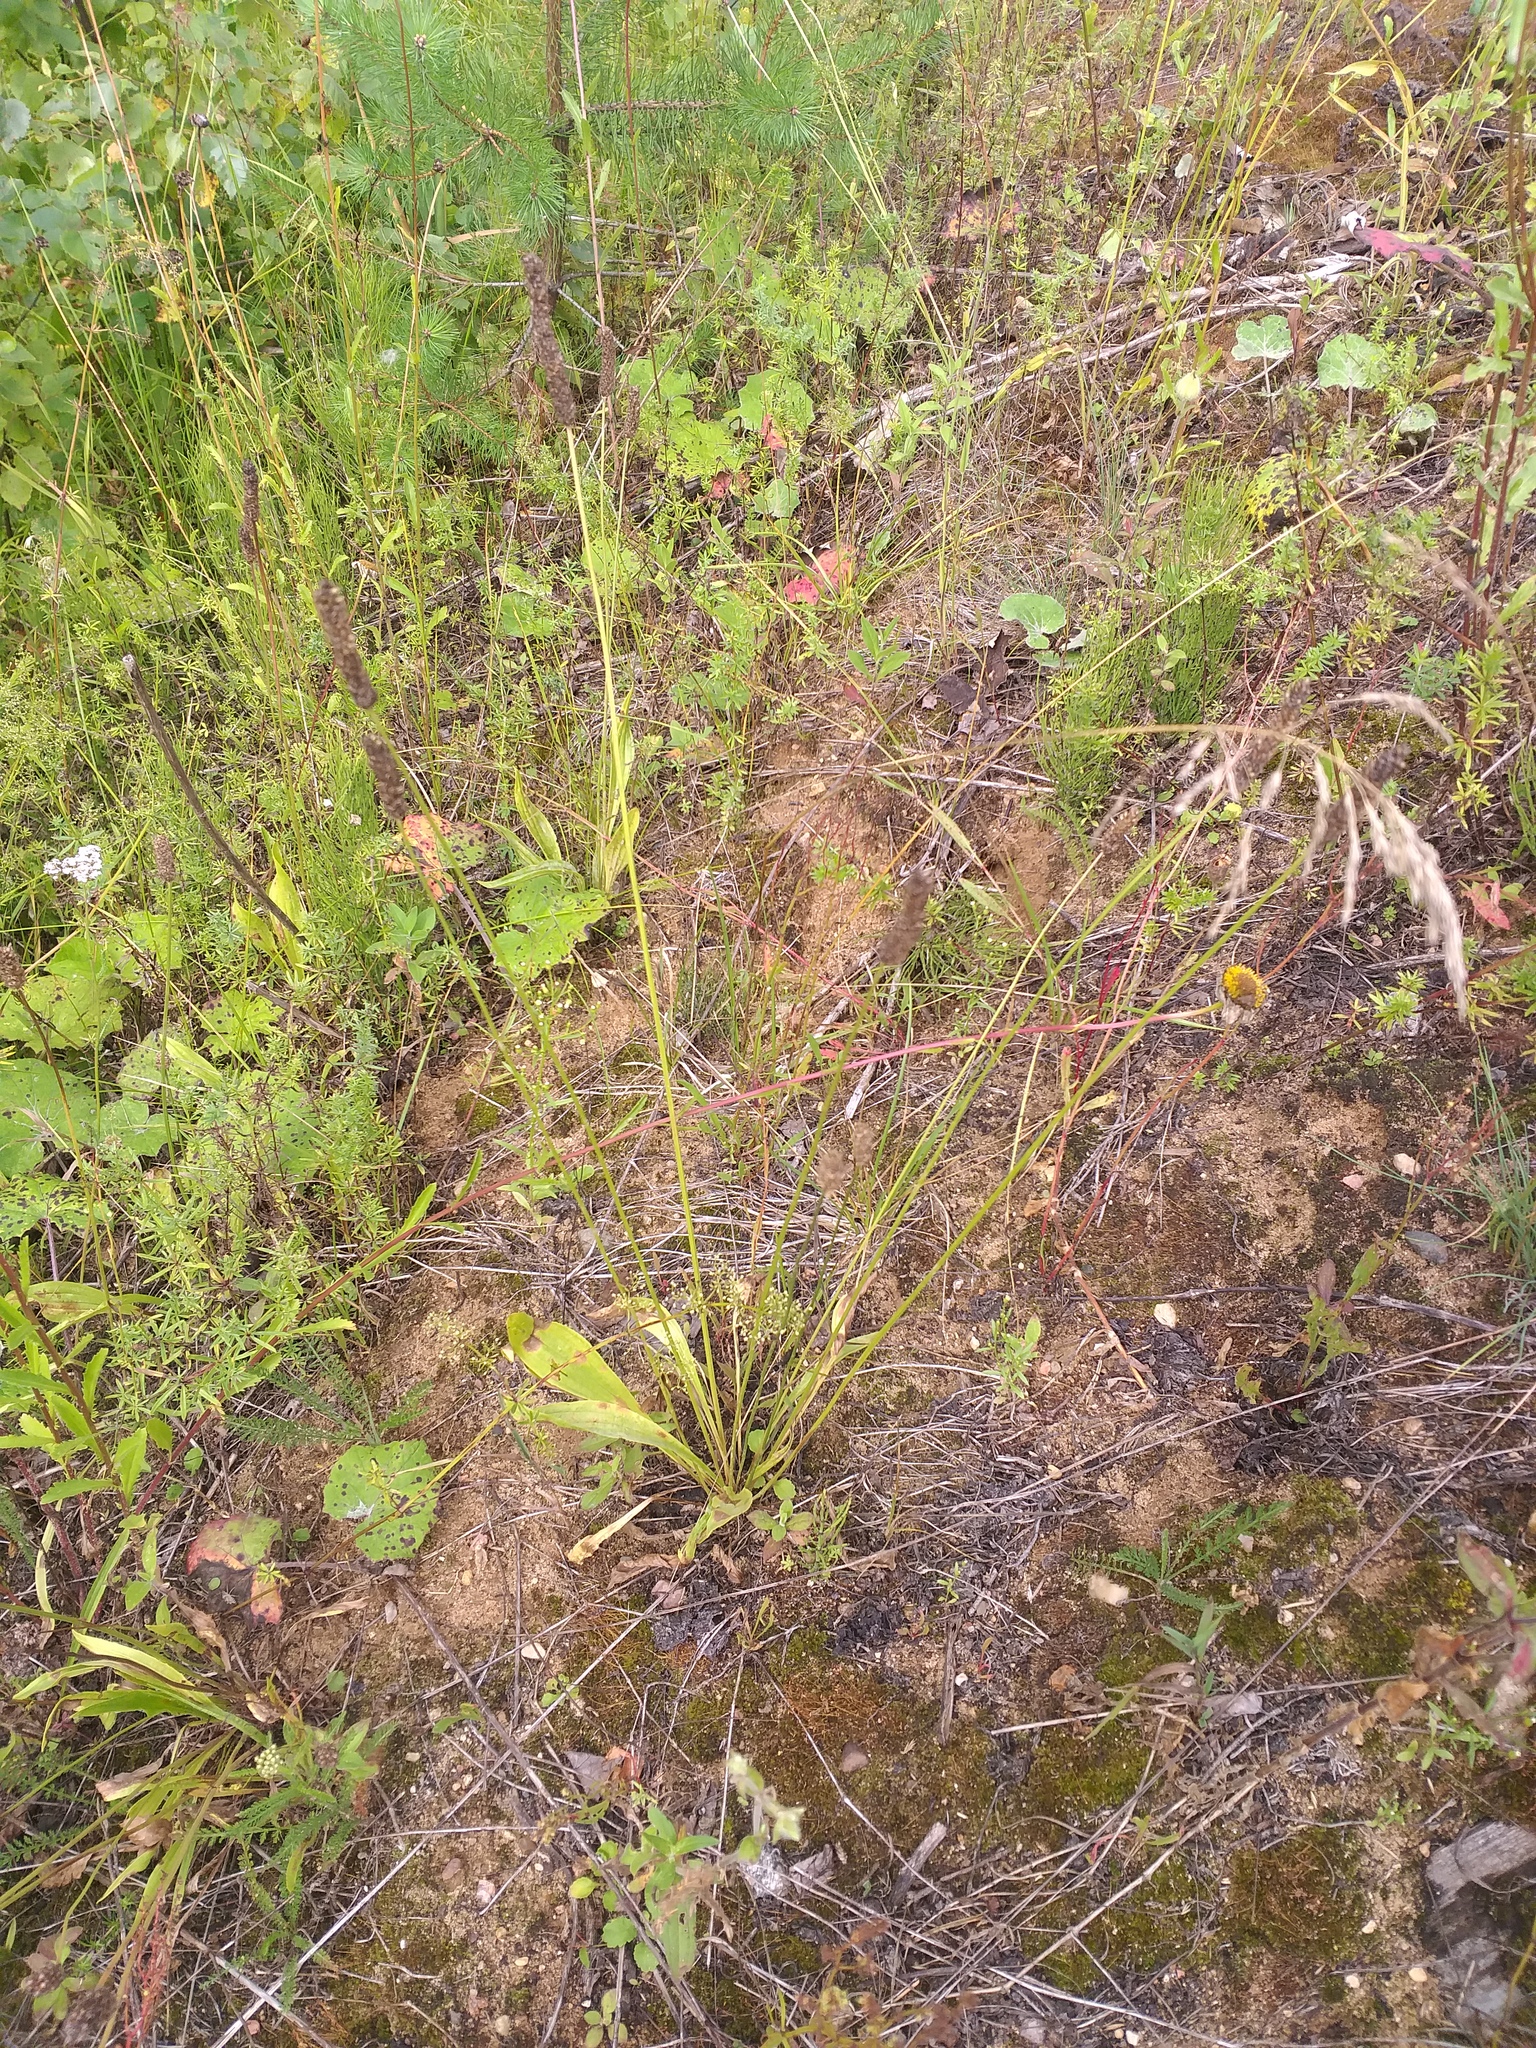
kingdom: Plantae
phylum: Tracheophyta
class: Magnoliopsida
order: Lamiales
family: Plantaginaceae
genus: Plantago
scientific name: Plantago lanceolata
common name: Ribwort plantain
